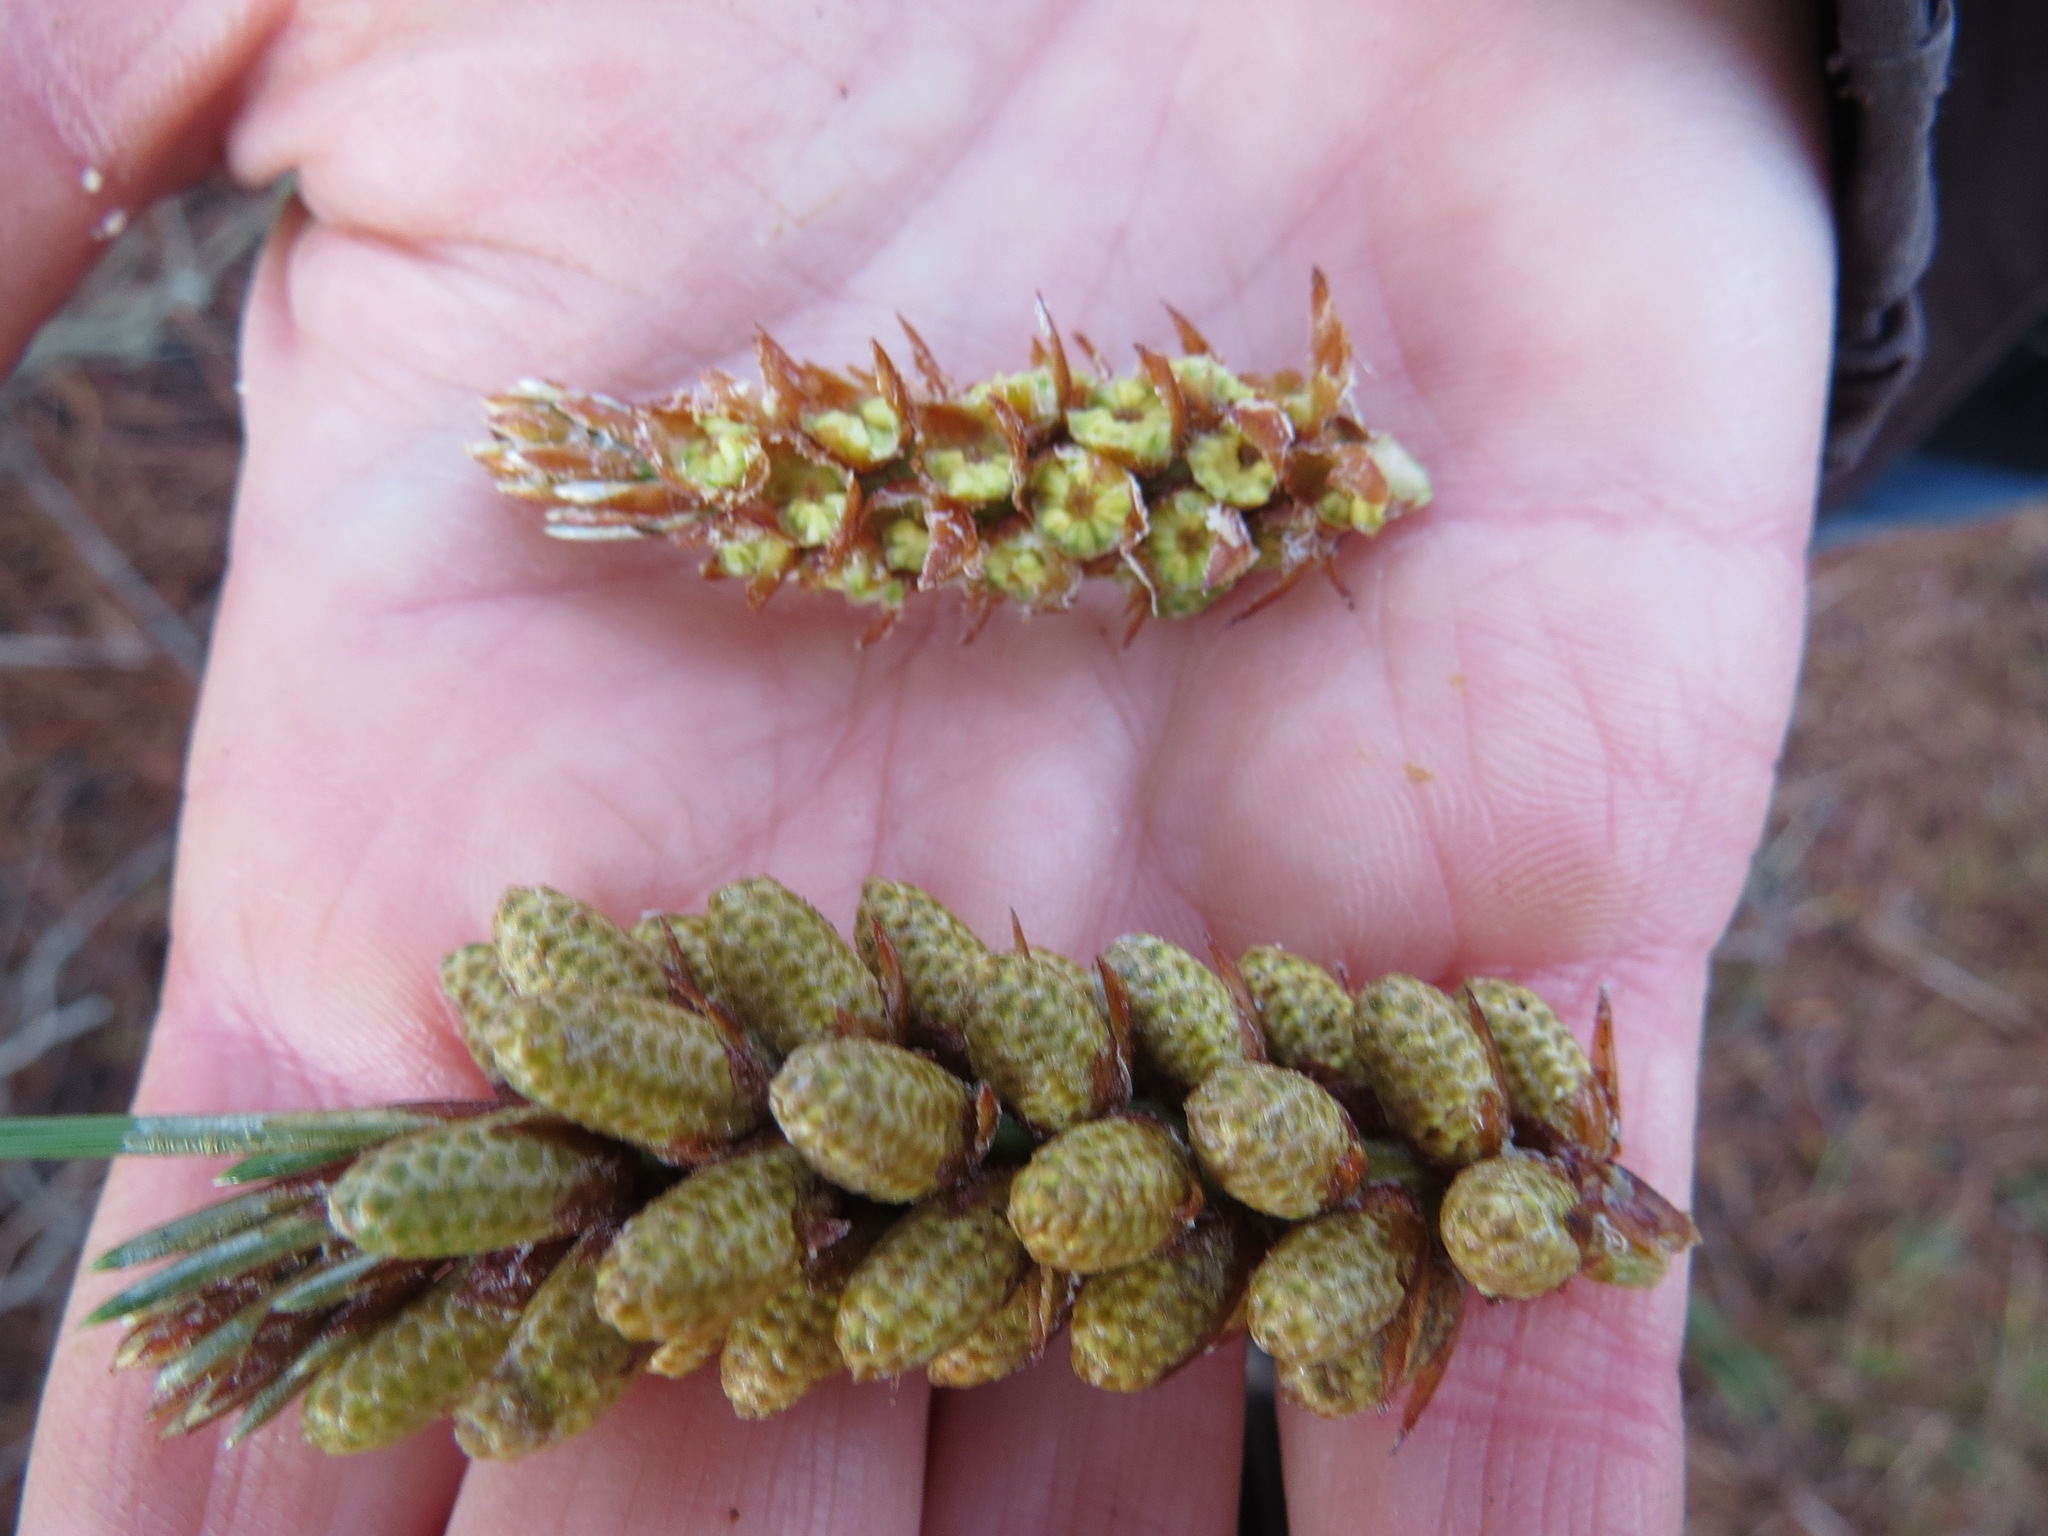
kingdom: Animalia
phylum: Chordata
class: Mammalia
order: Rodentia
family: Cricetidae
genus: Neotoma
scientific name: Neotoma fuscipes
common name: Dusky-footed woodrat
